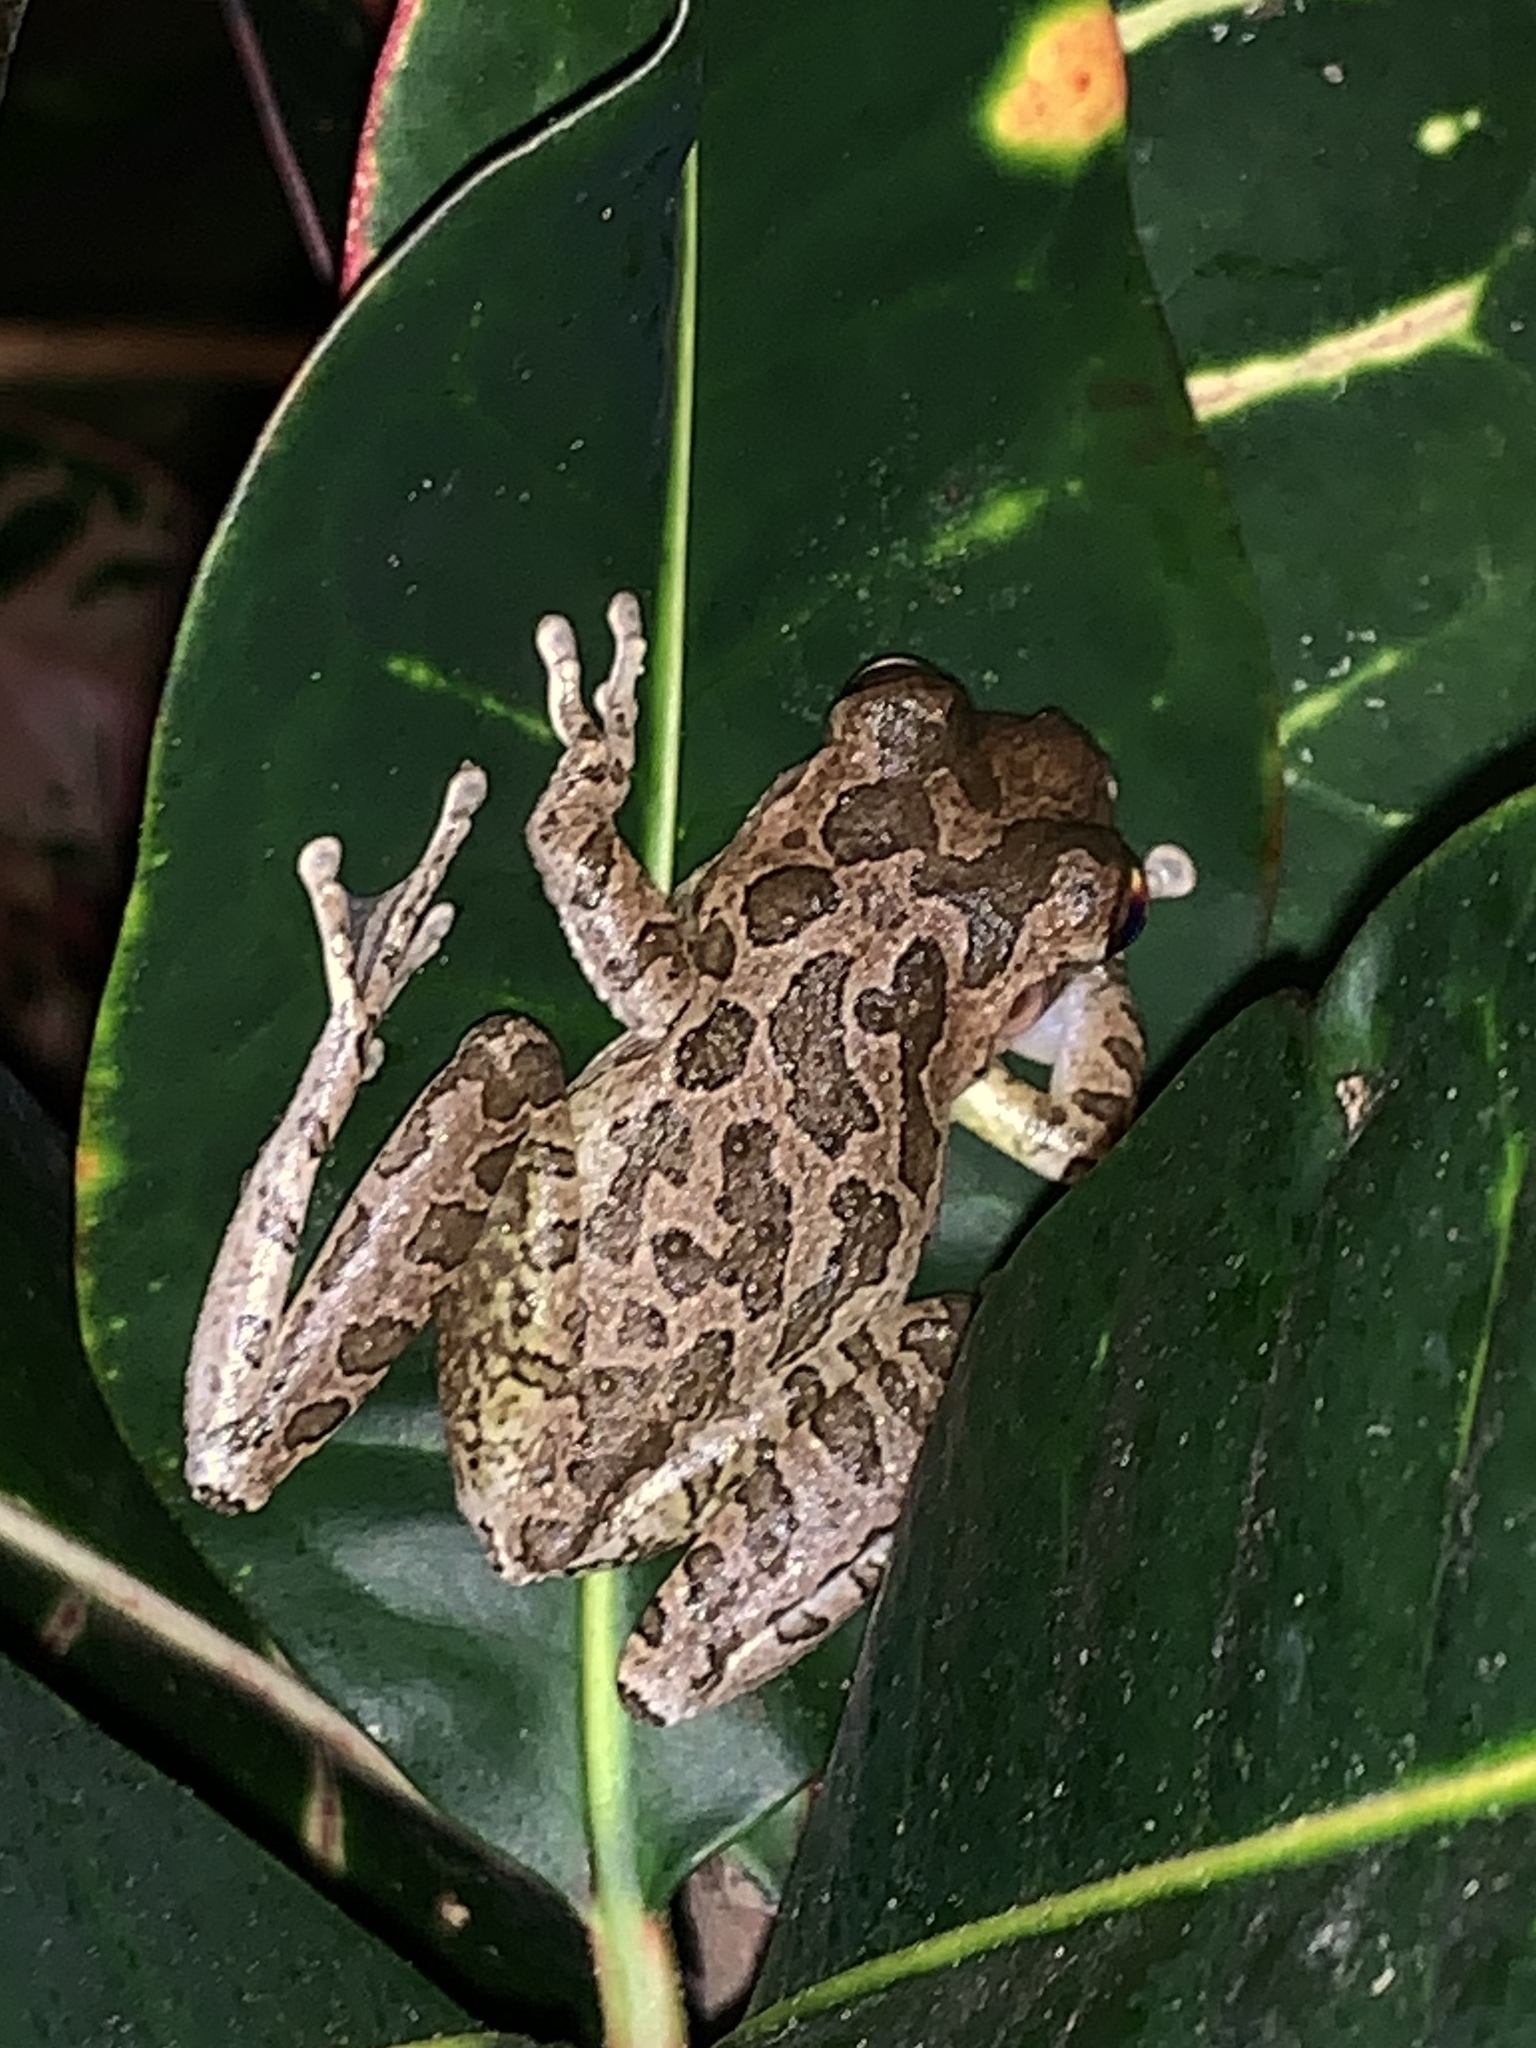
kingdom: Animalia
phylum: Chordata
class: Amphibia
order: Anura
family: Hylidae
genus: Osteopilus
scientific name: Osteopilus septentrionalis
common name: Cuban treefrog
